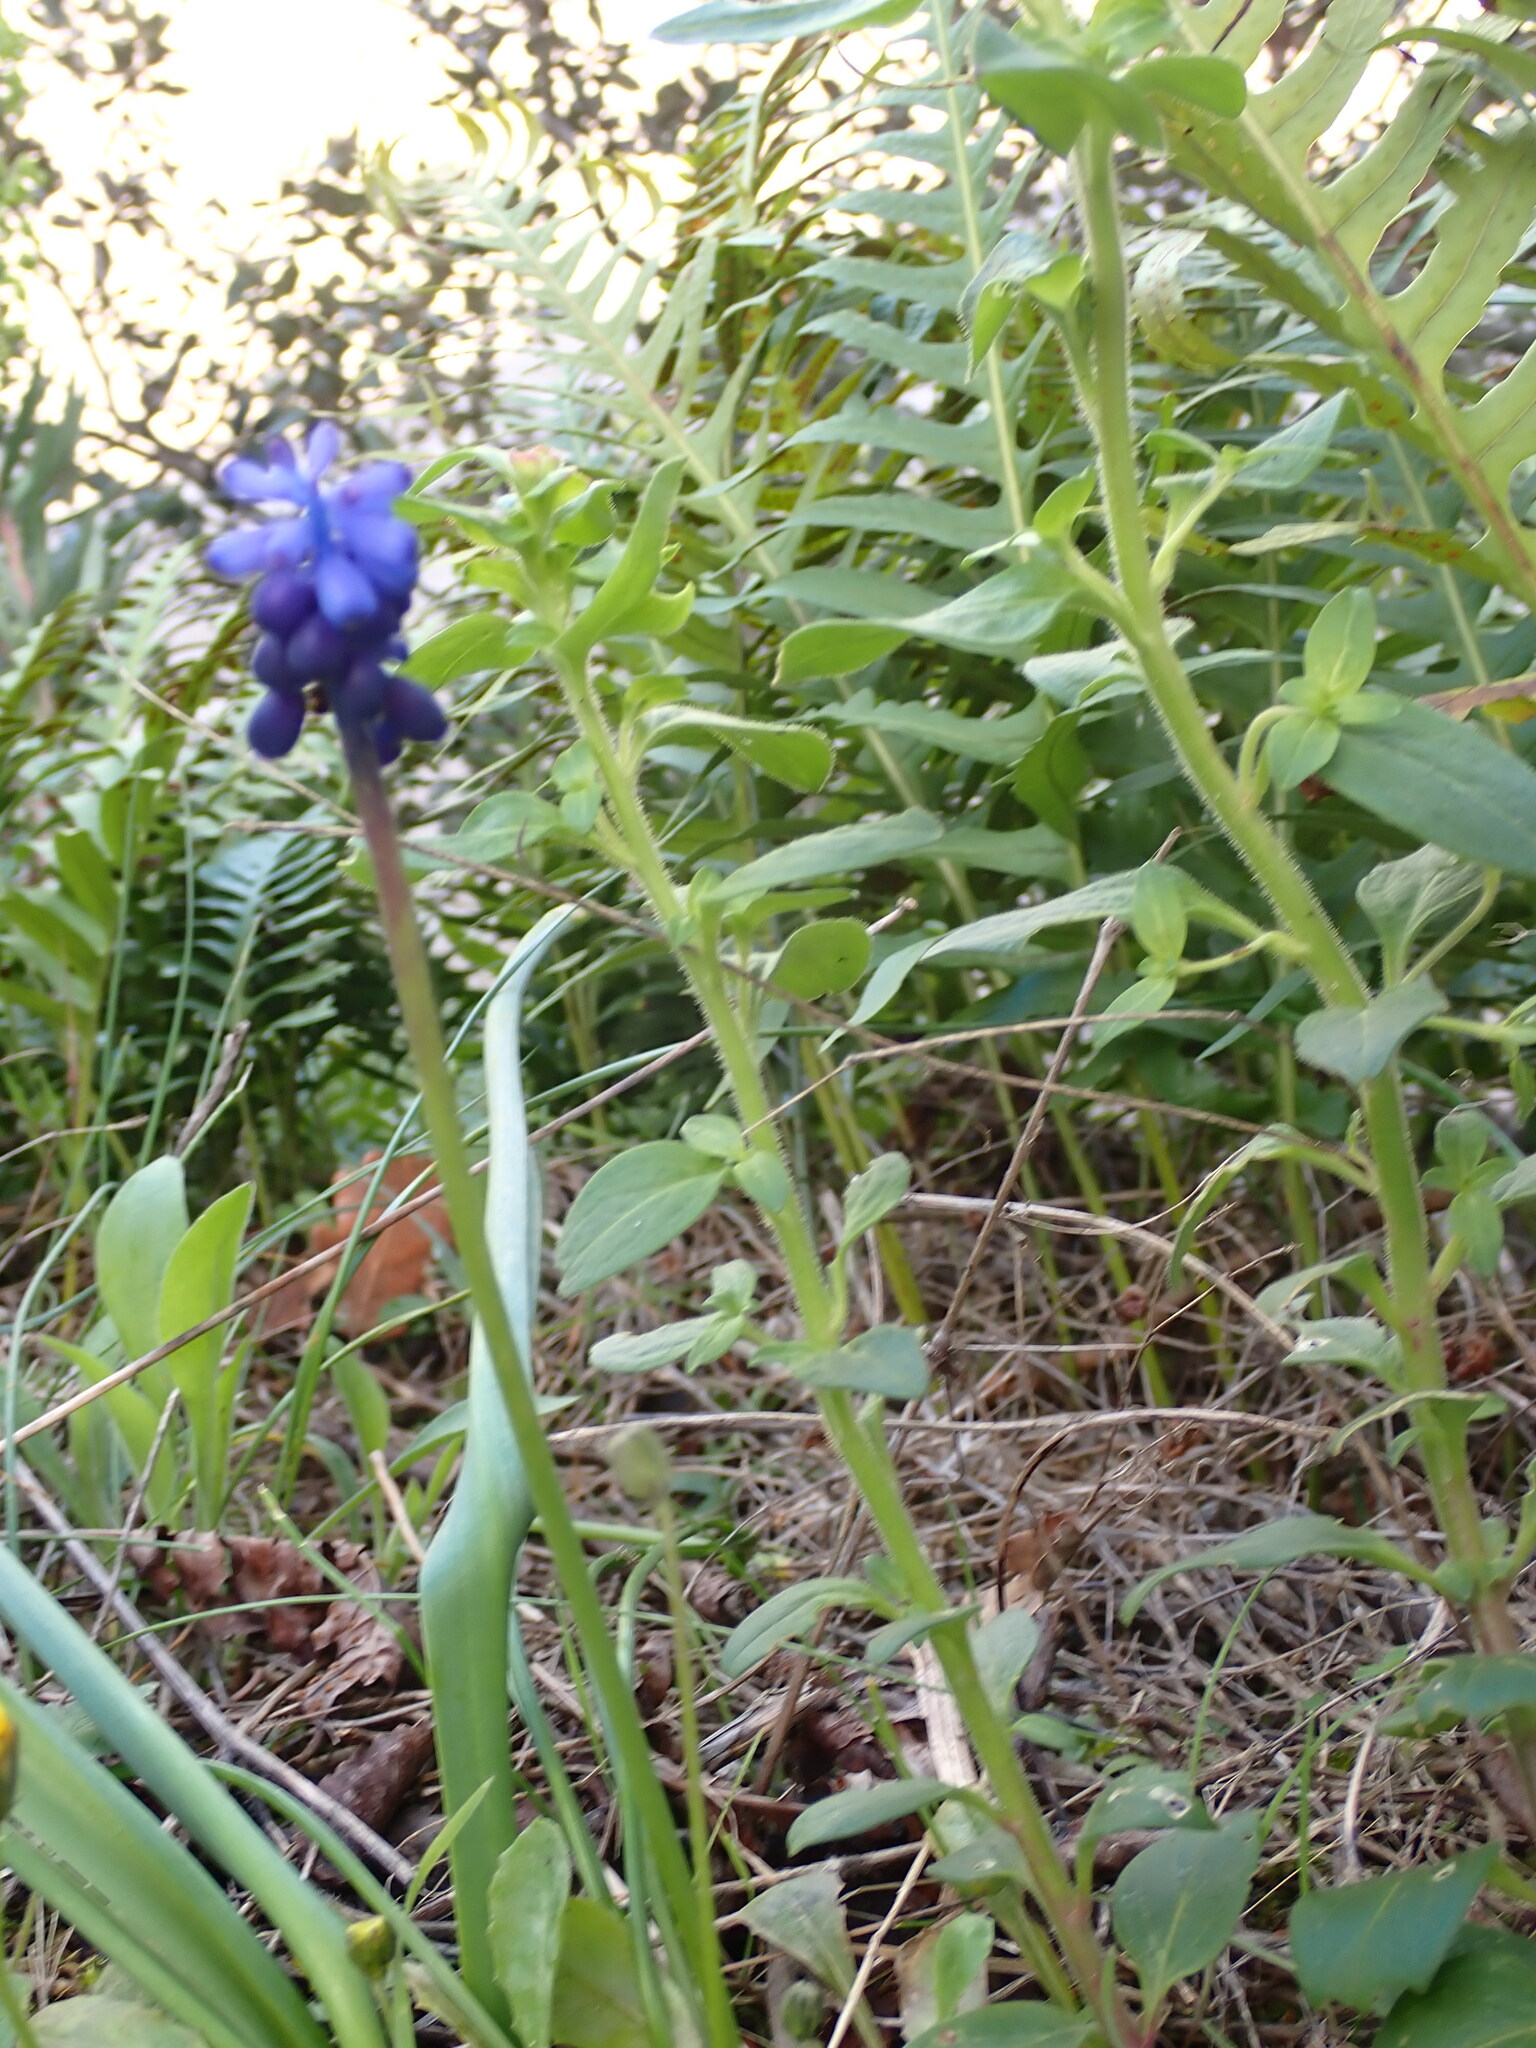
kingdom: Plantae
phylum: Tracheophyta
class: Liliopsida
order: Asparagales
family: Asparagaceae
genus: Muscari
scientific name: Muscari neglectum
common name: Grape-hyacinth
